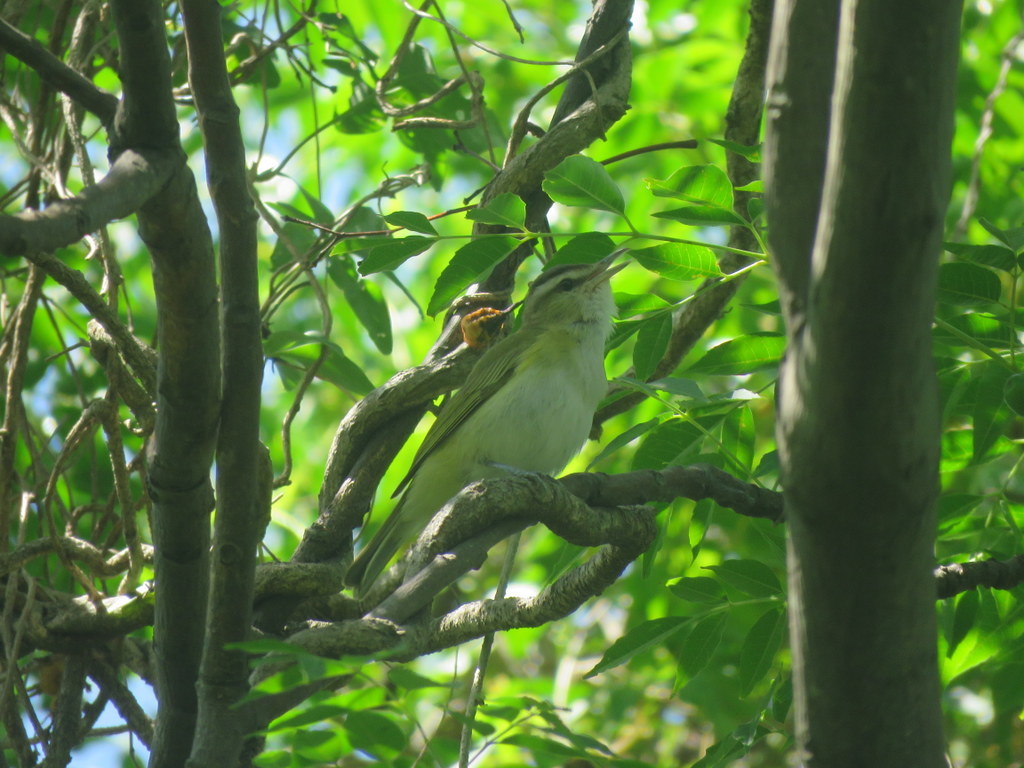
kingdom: Animalia
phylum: Chordata
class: Aves
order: Passeriformes
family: Vireonidae
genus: Vireo
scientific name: Vireo olivaceus
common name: Red-eyed vireo
